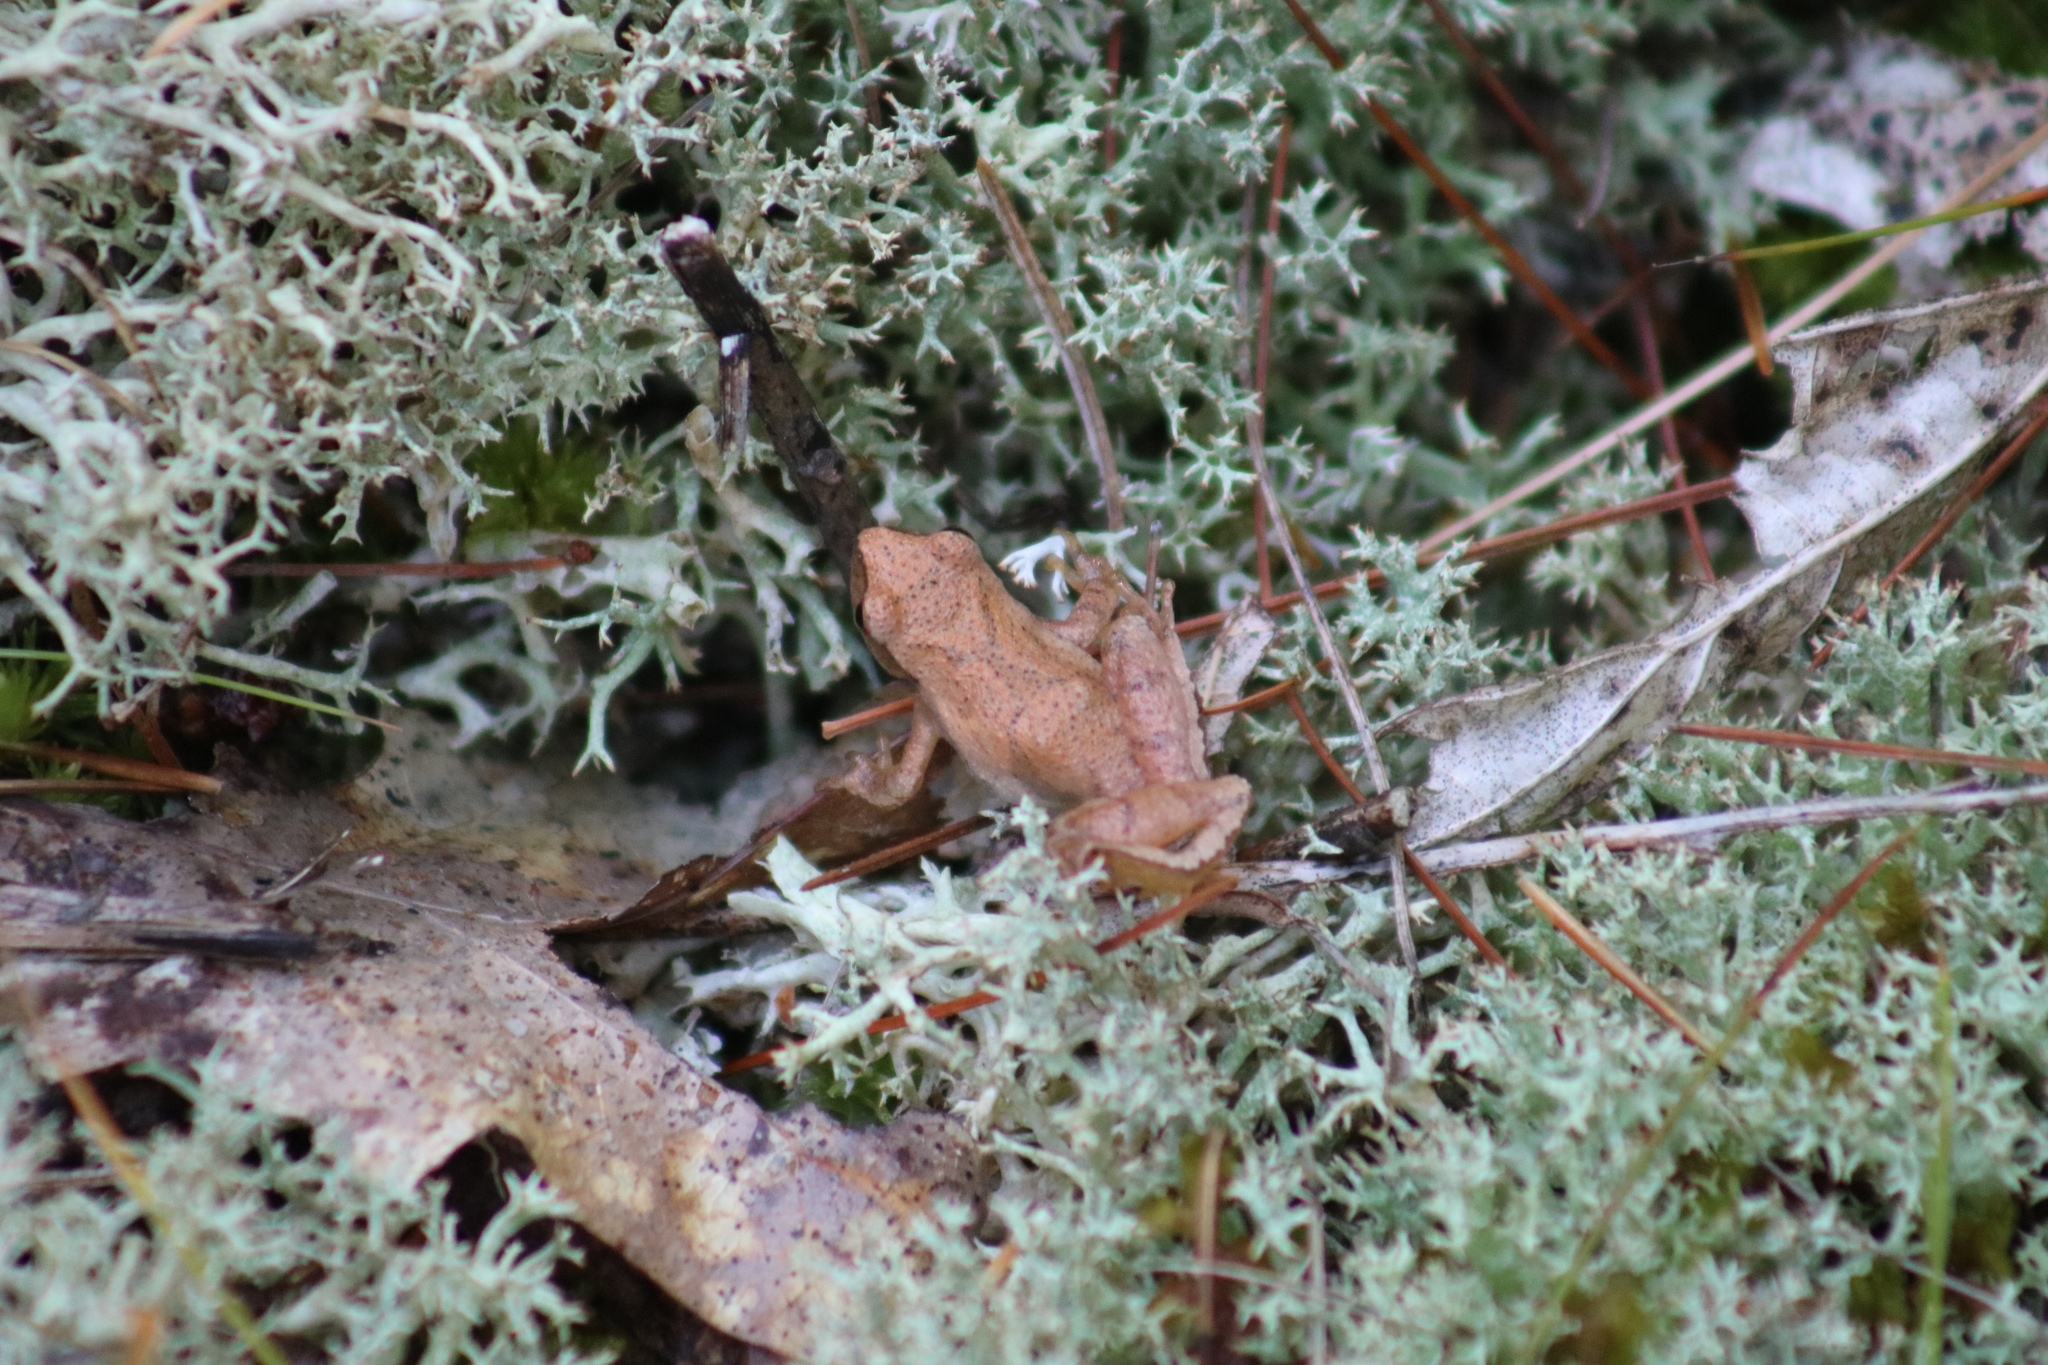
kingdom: Animalia
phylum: Chordata
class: Amphibia
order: Anura
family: Hylidae
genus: Pseudacris
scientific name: Pseudacris crucifer
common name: Spring peeper
